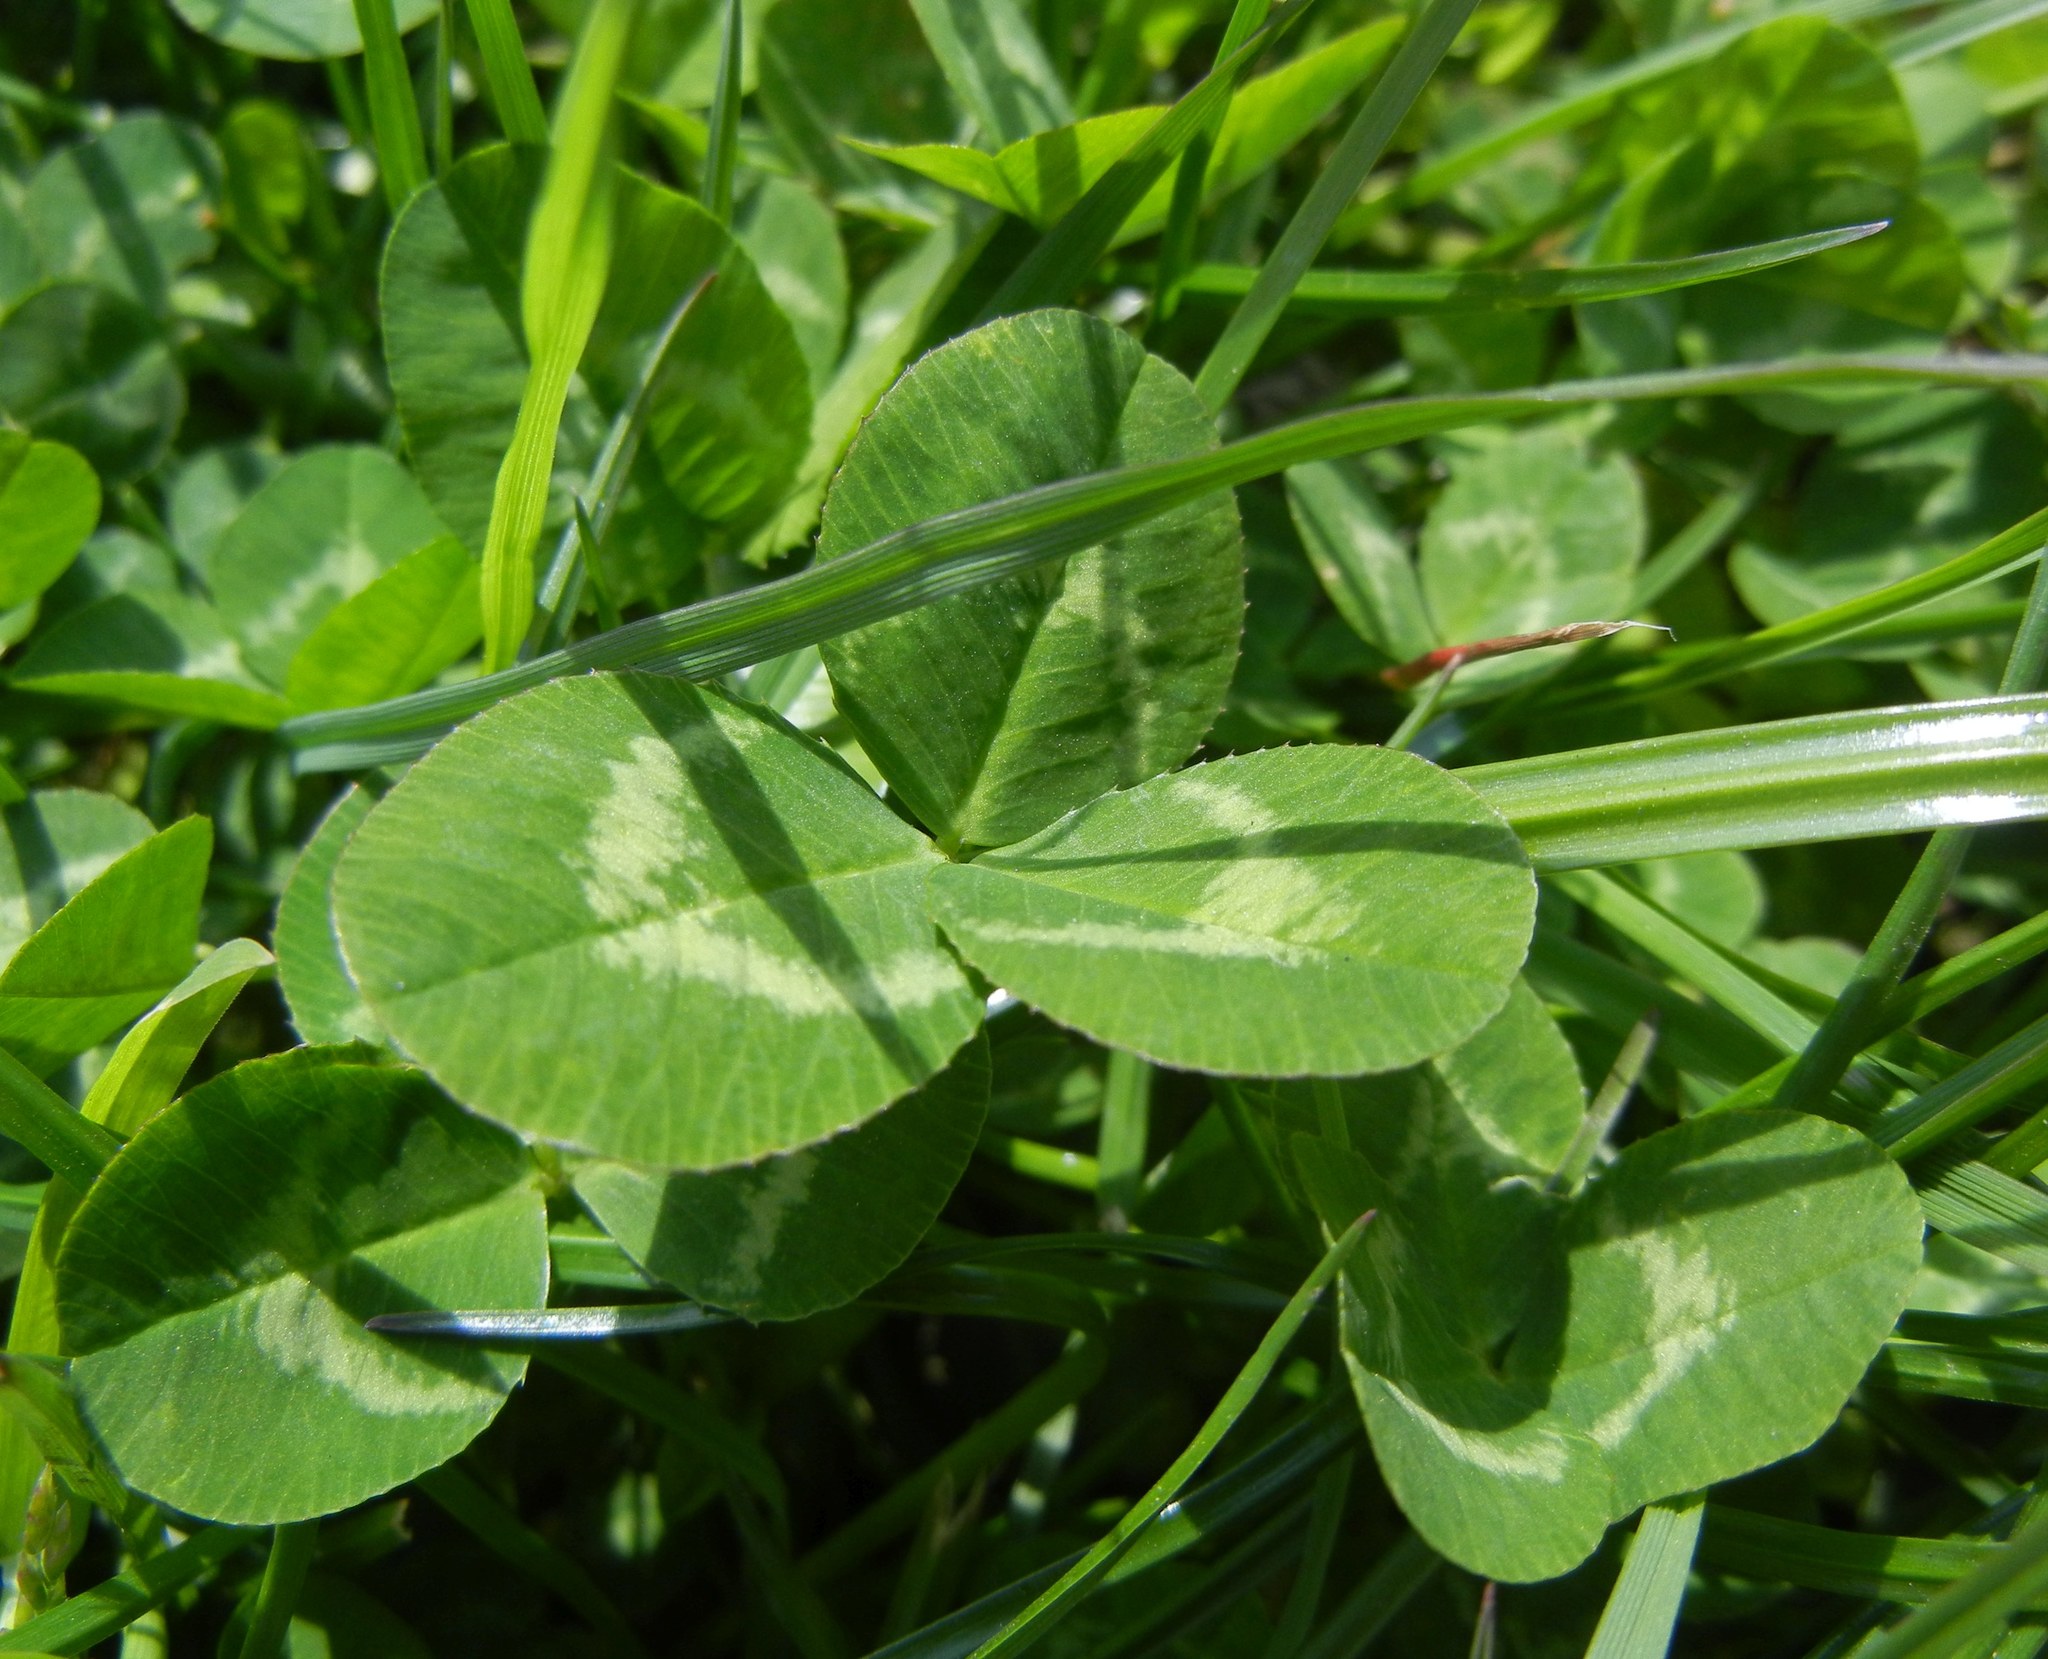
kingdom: Plantae
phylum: Tracheophyta
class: Magnoliopsida
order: Fabales
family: Fabaceae
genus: Trifolium
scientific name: Trifolium repens
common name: White clover
